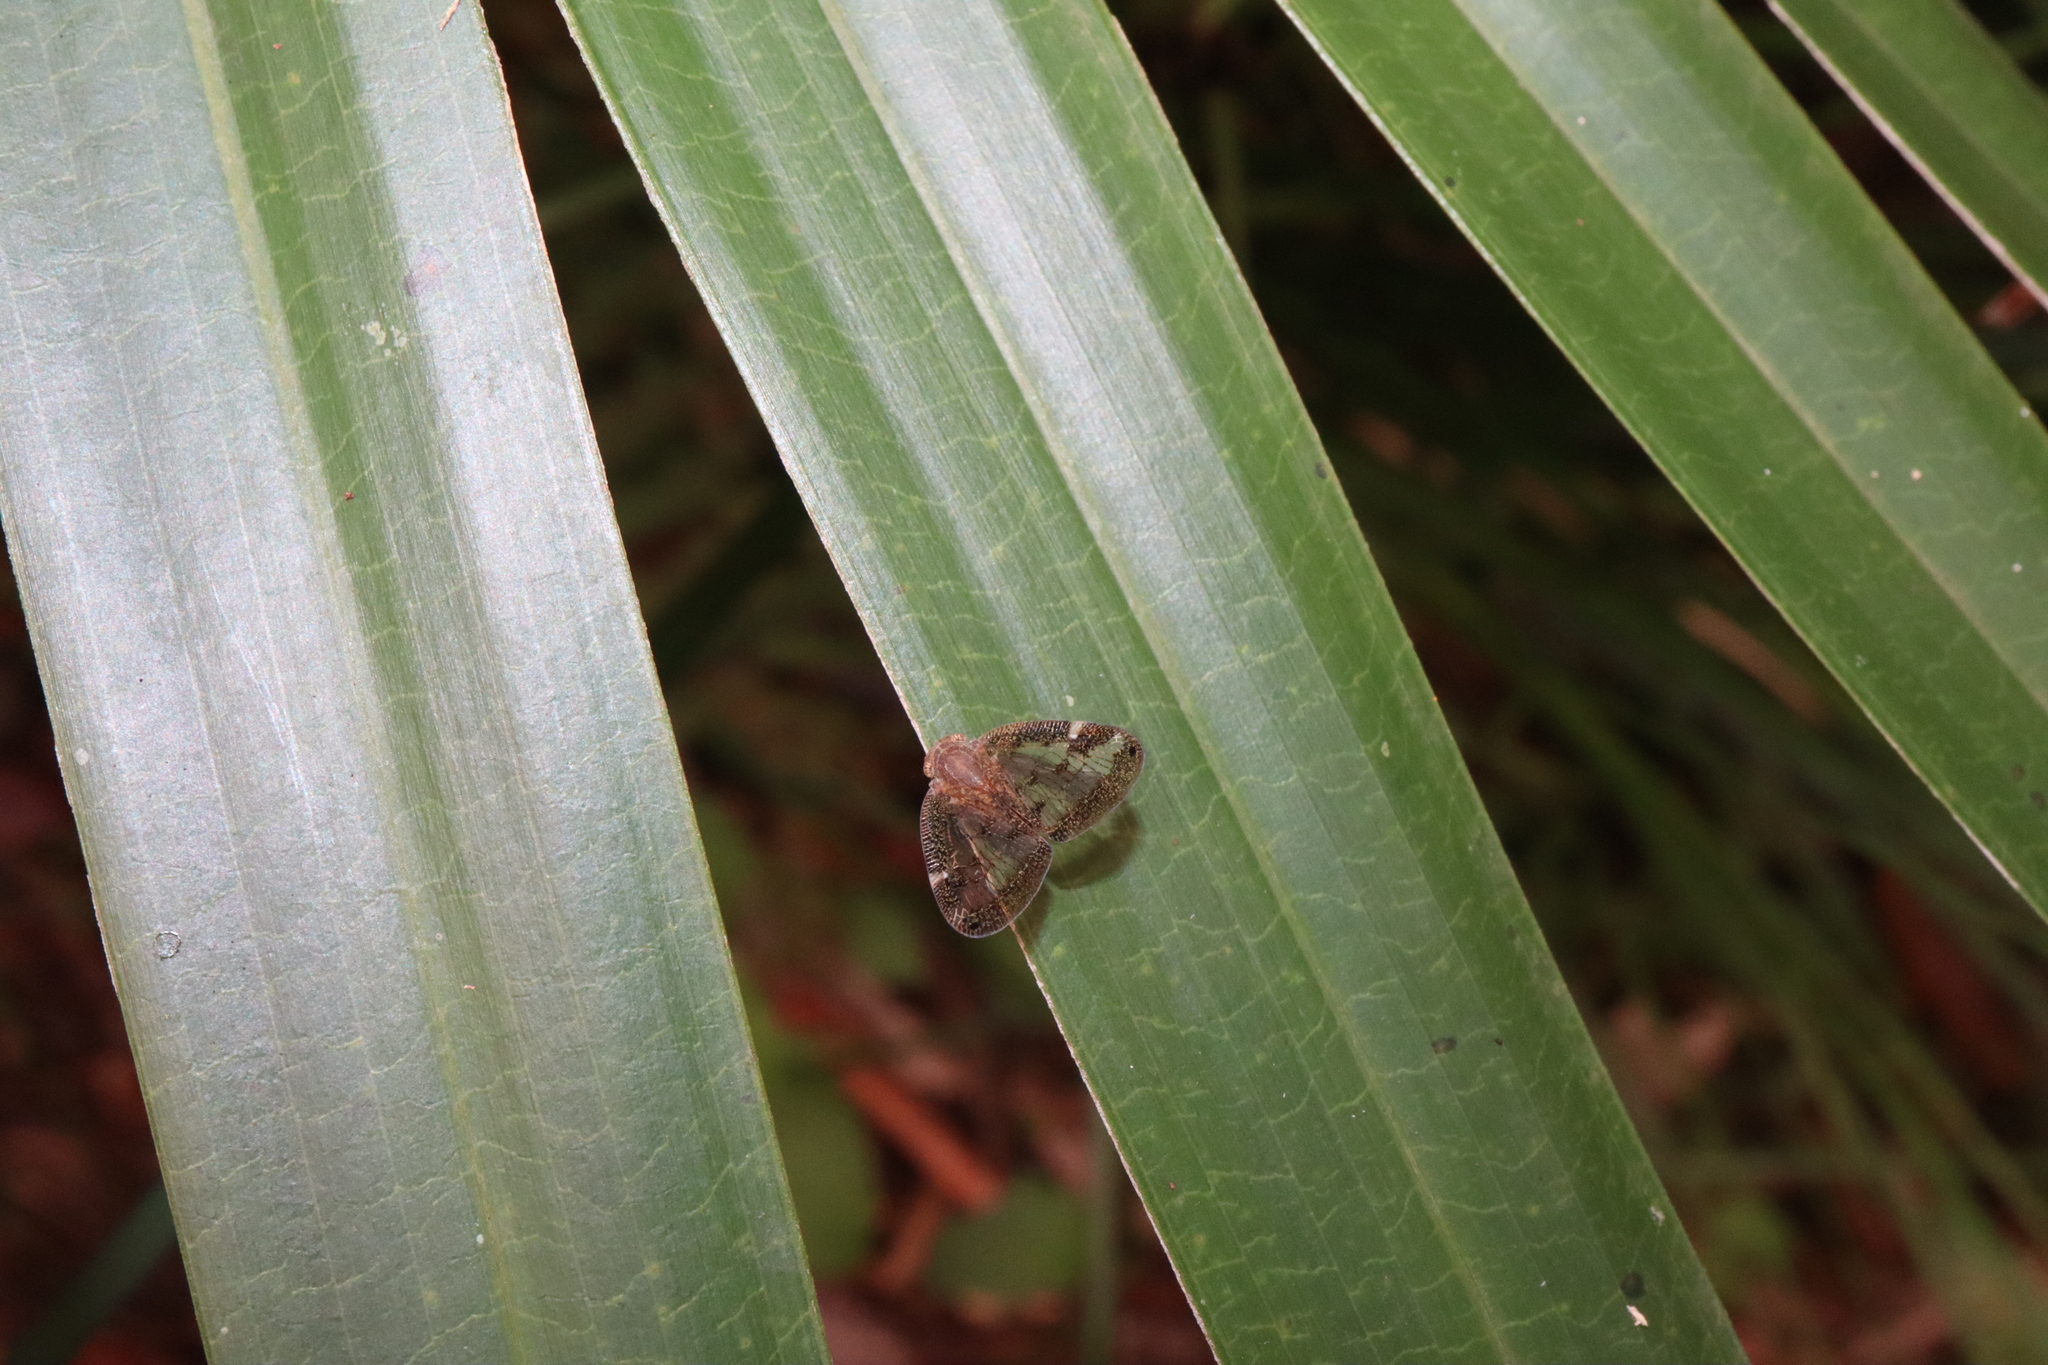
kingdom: Animalia
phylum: Arthropoda
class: Insecta
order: Hemiptera
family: Ricaniidae
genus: Scolypopa
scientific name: Scolypopa australis
